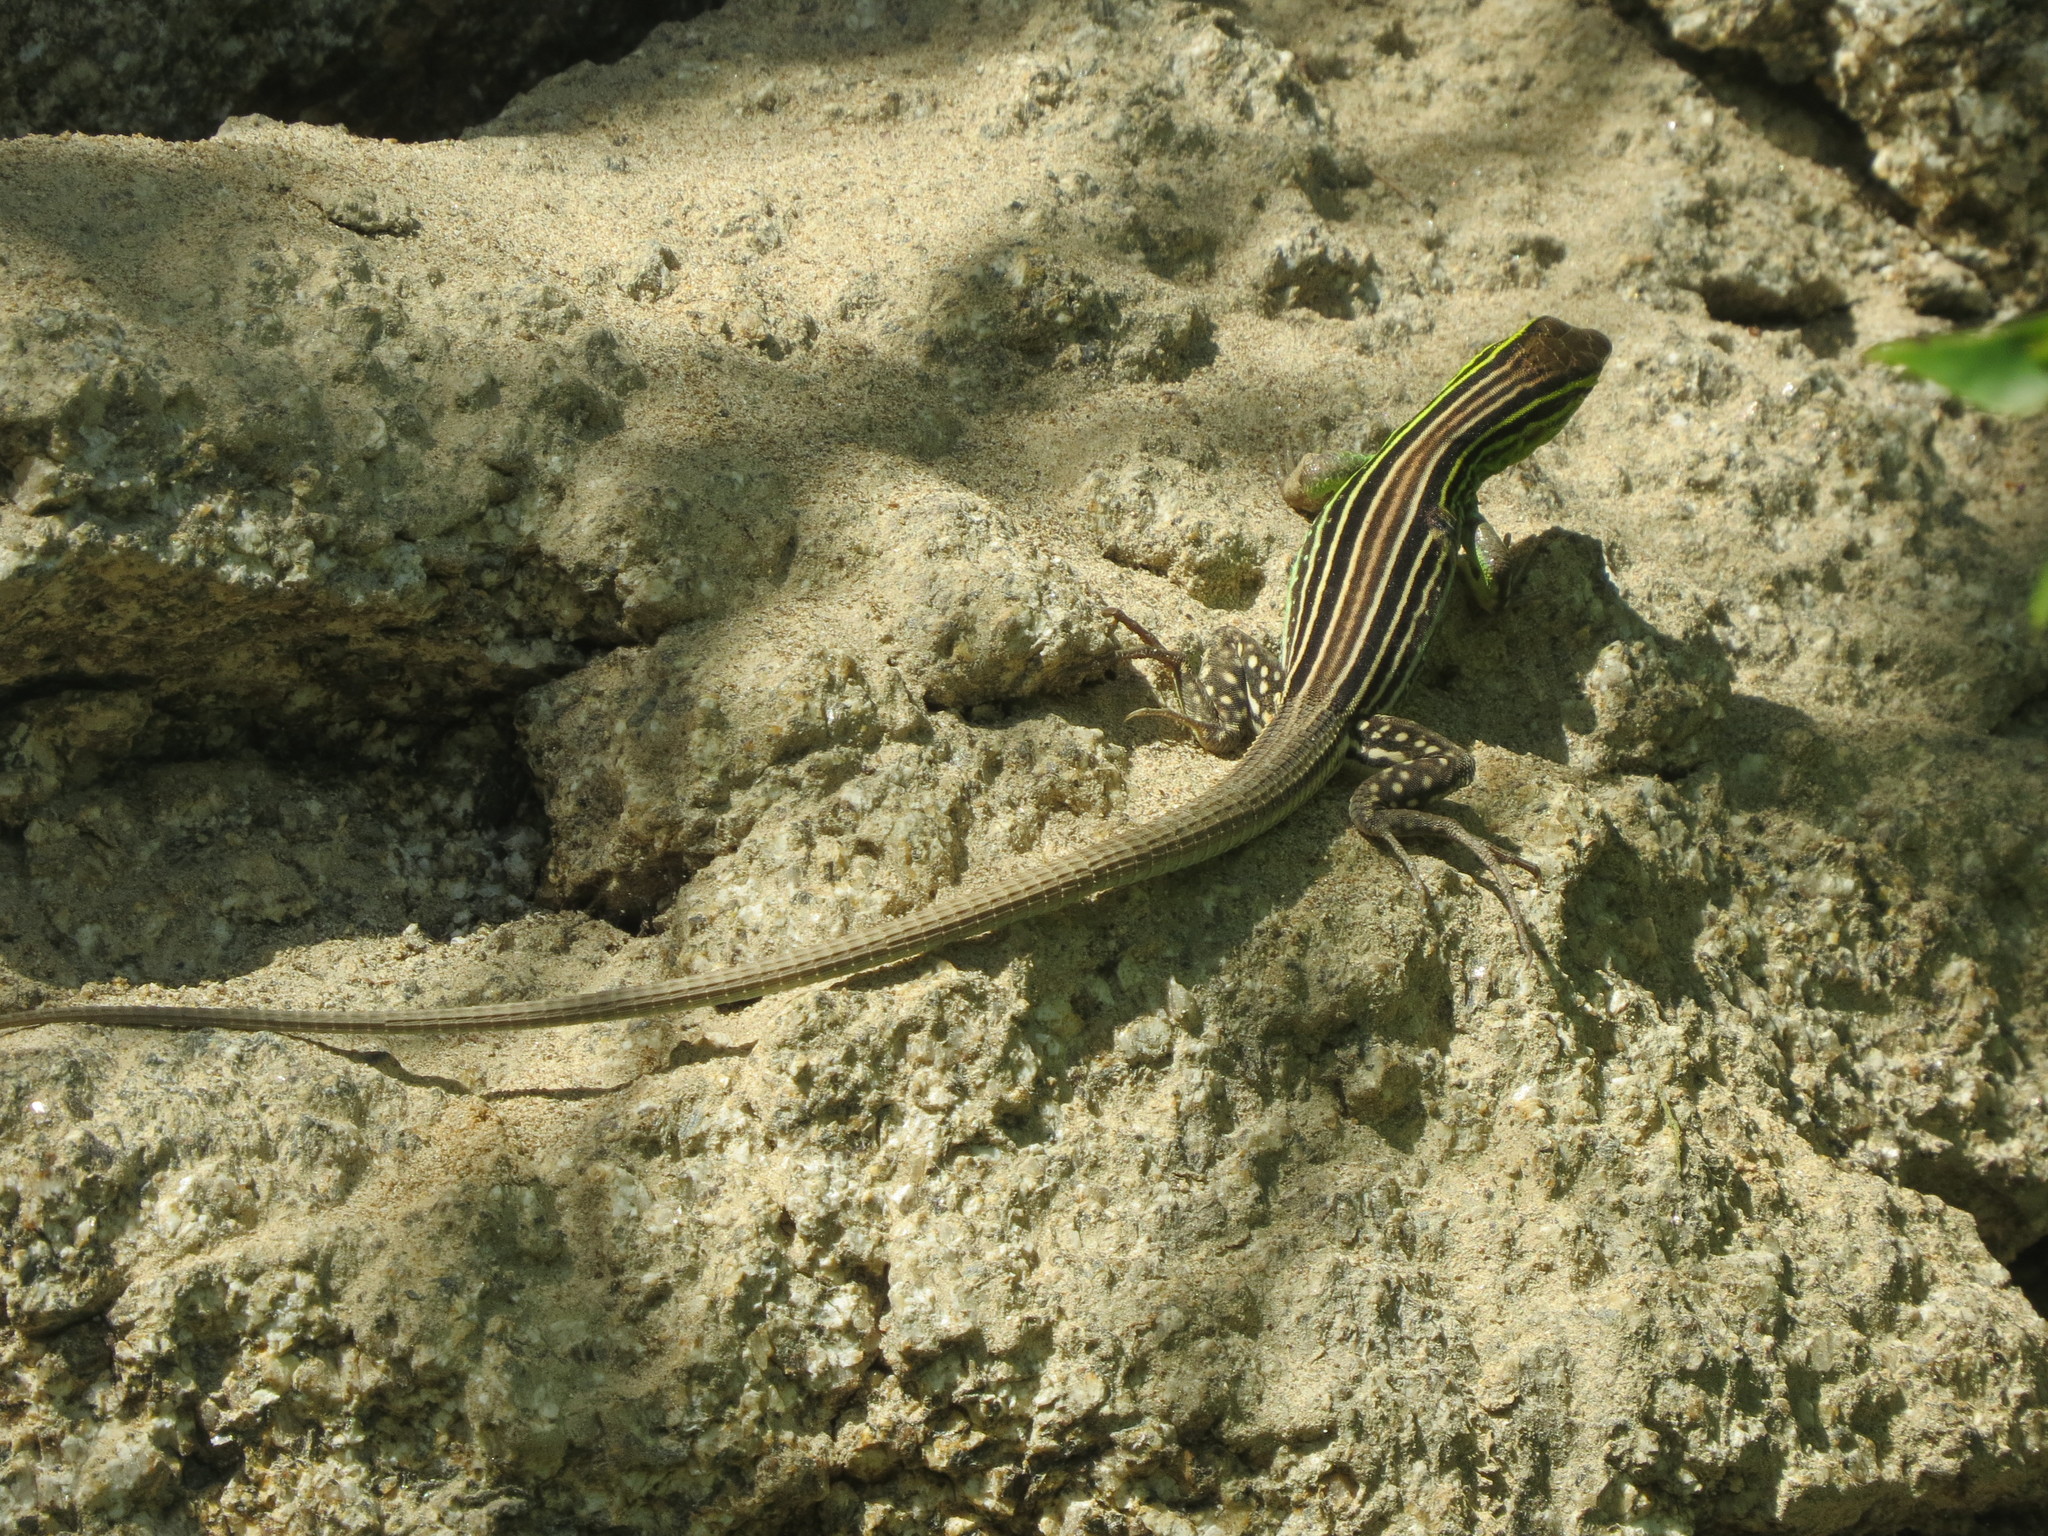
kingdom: Animalia
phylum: Chordata
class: Squamata
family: Teiidae
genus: Cnemidophorus
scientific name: Cnemidophorus gaigei
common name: Gaige’s rainbow lizard
